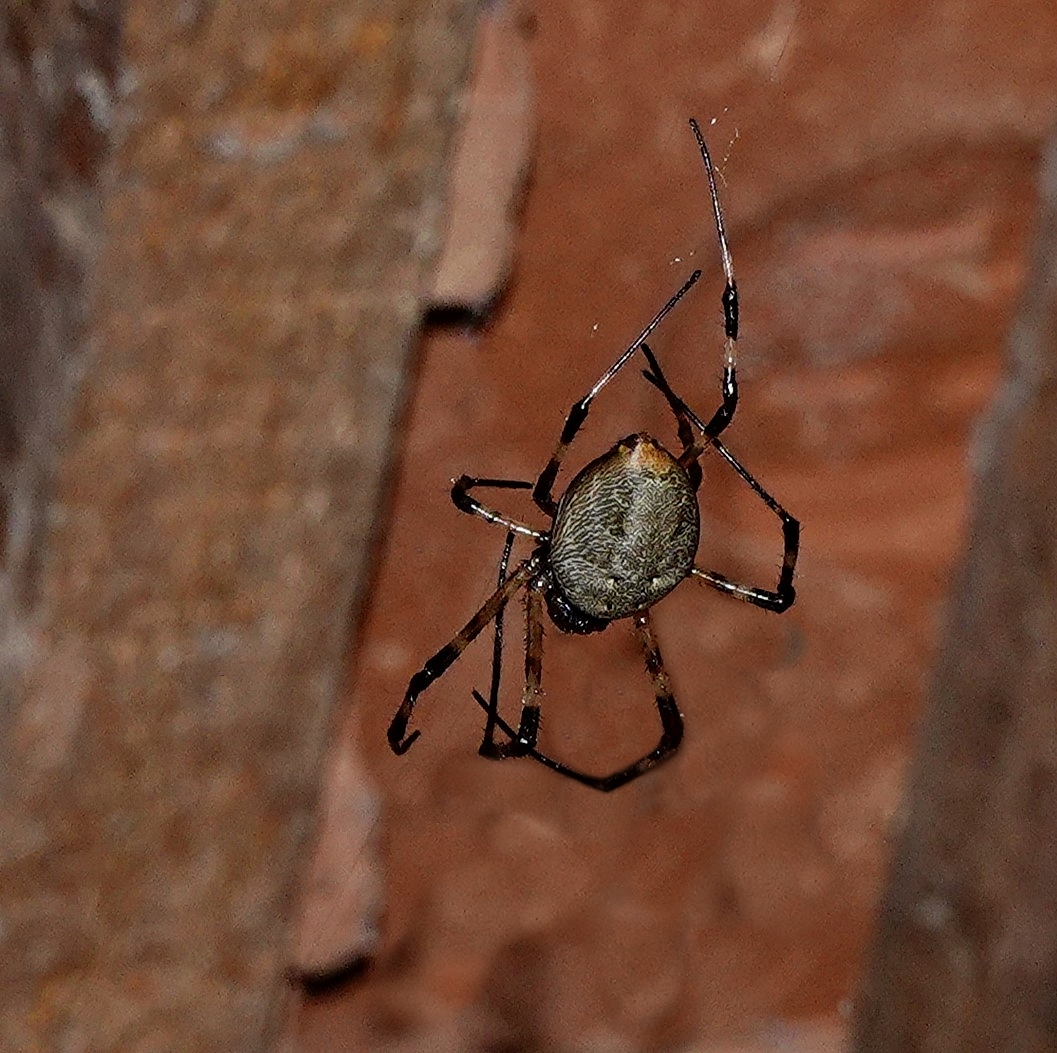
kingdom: Animalia
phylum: Arthropoda
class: Arachnida
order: Araneae
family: Araneidae
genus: Nephilingis
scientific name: Nephilingis livida
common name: Madagascar hermit spider
